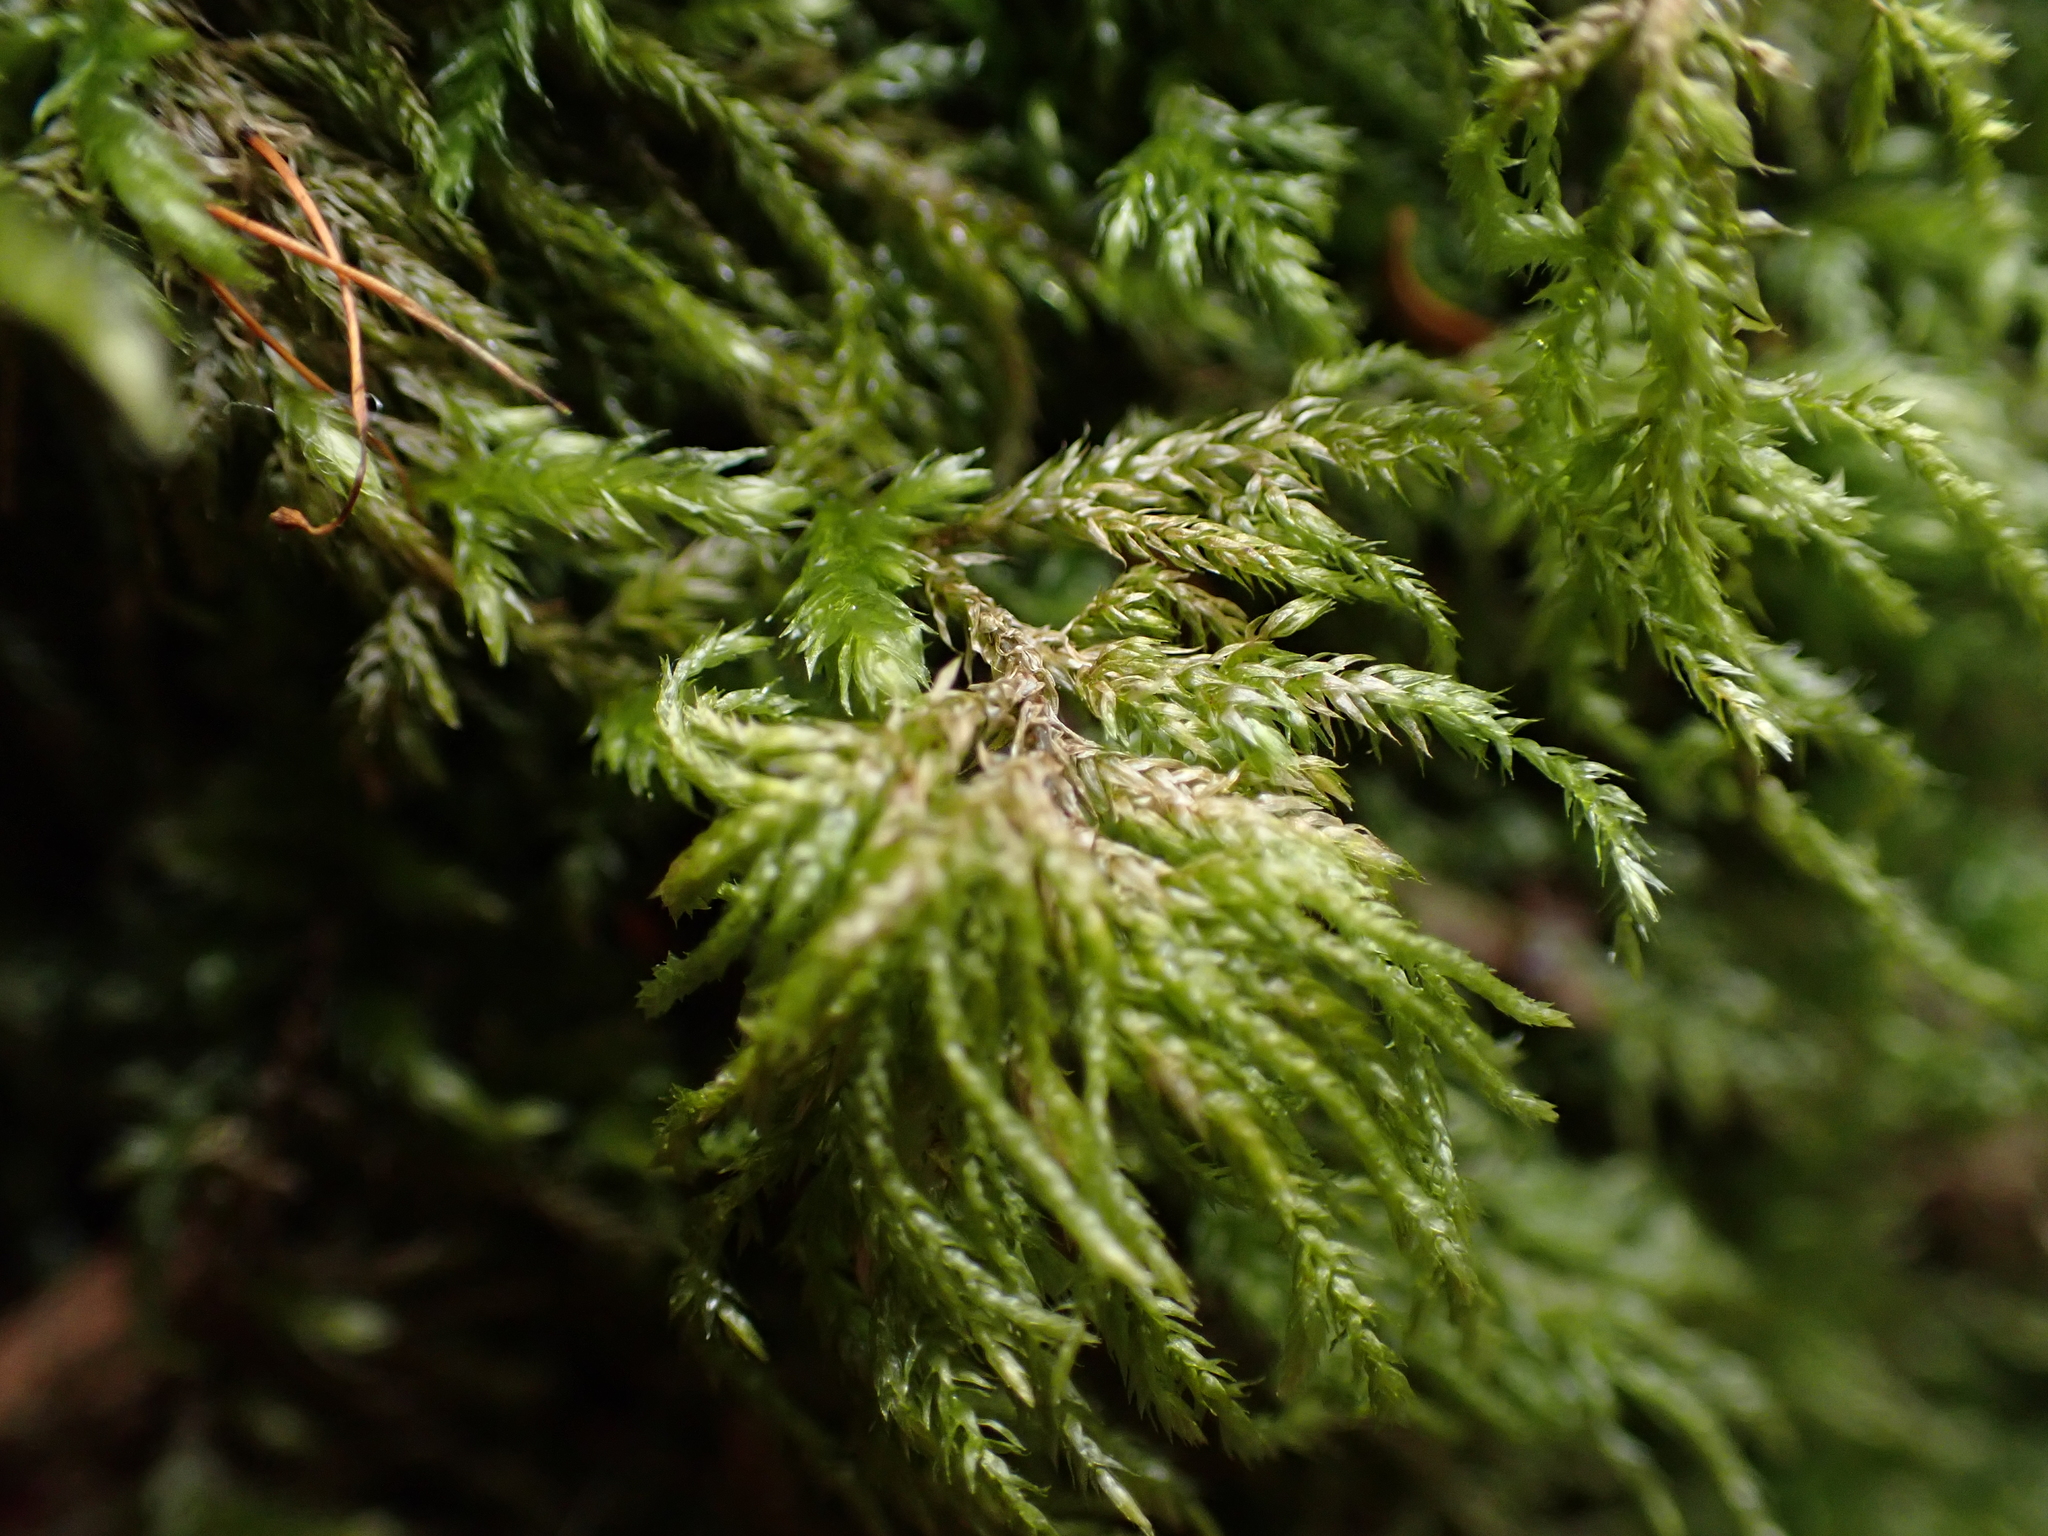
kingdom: Plantae
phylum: Bryophyta
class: Bryopsida
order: Hypnales
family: Lembophyllaceae
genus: Pseudisothecium
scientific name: Pseudisothecium stoloniferum
